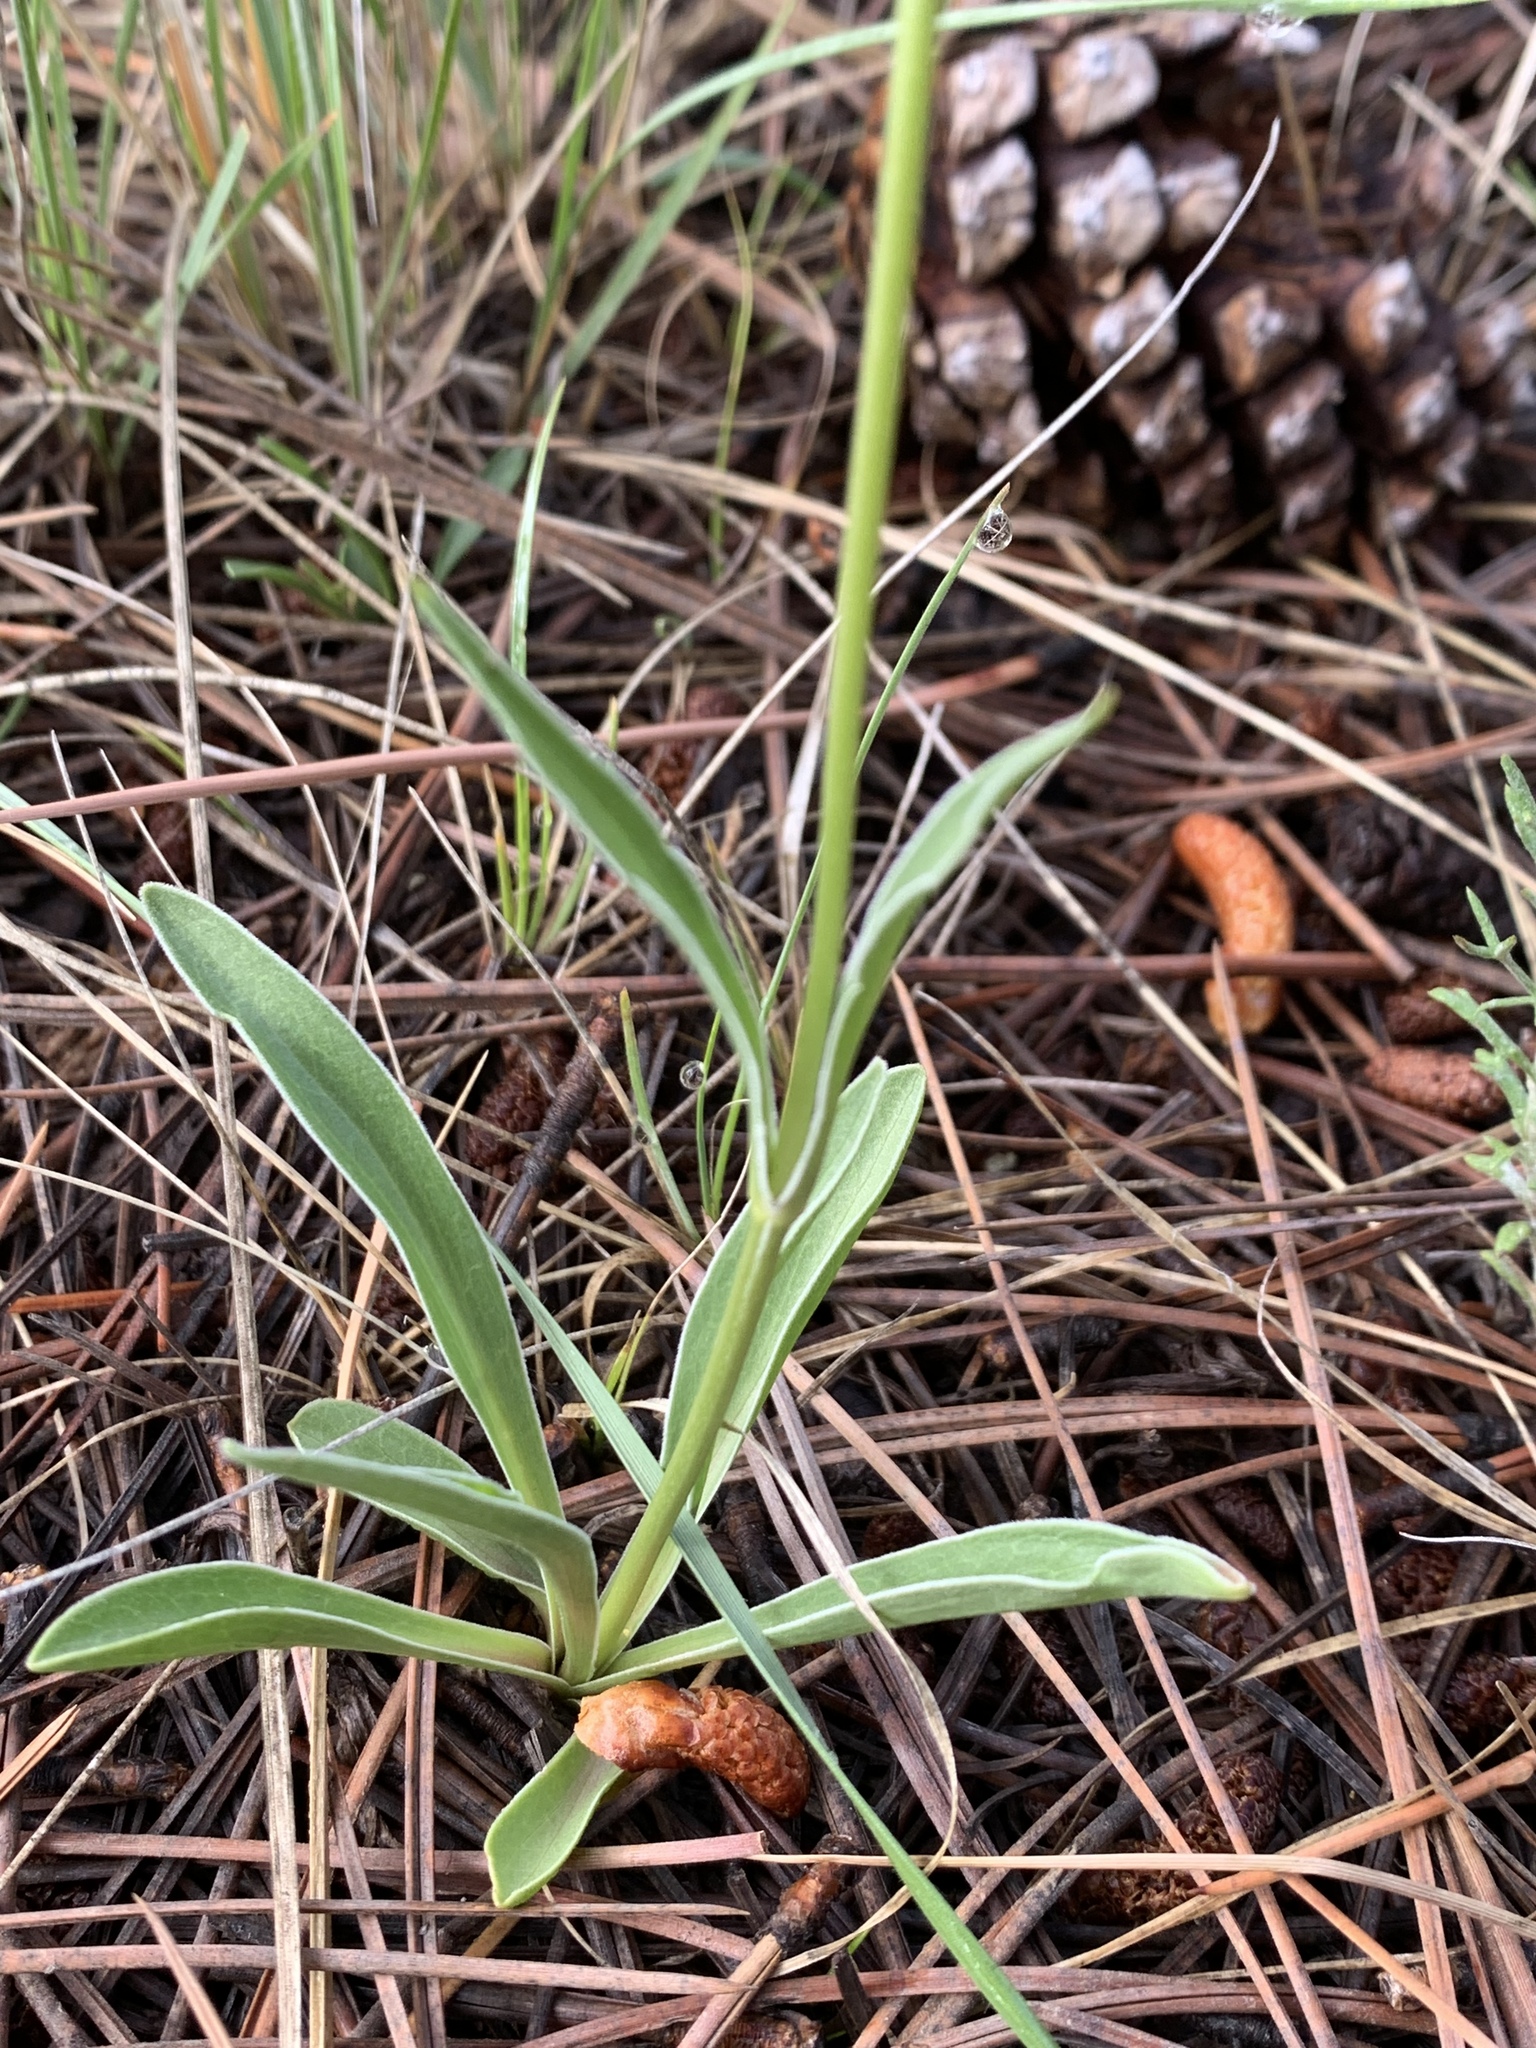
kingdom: Plantae
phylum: Tracheophyta
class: Magnoliopsida
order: Dipsacales
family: Caprifoliaceae
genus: Valeriana
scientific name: Valeriana edulis
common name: Taproot valerian
